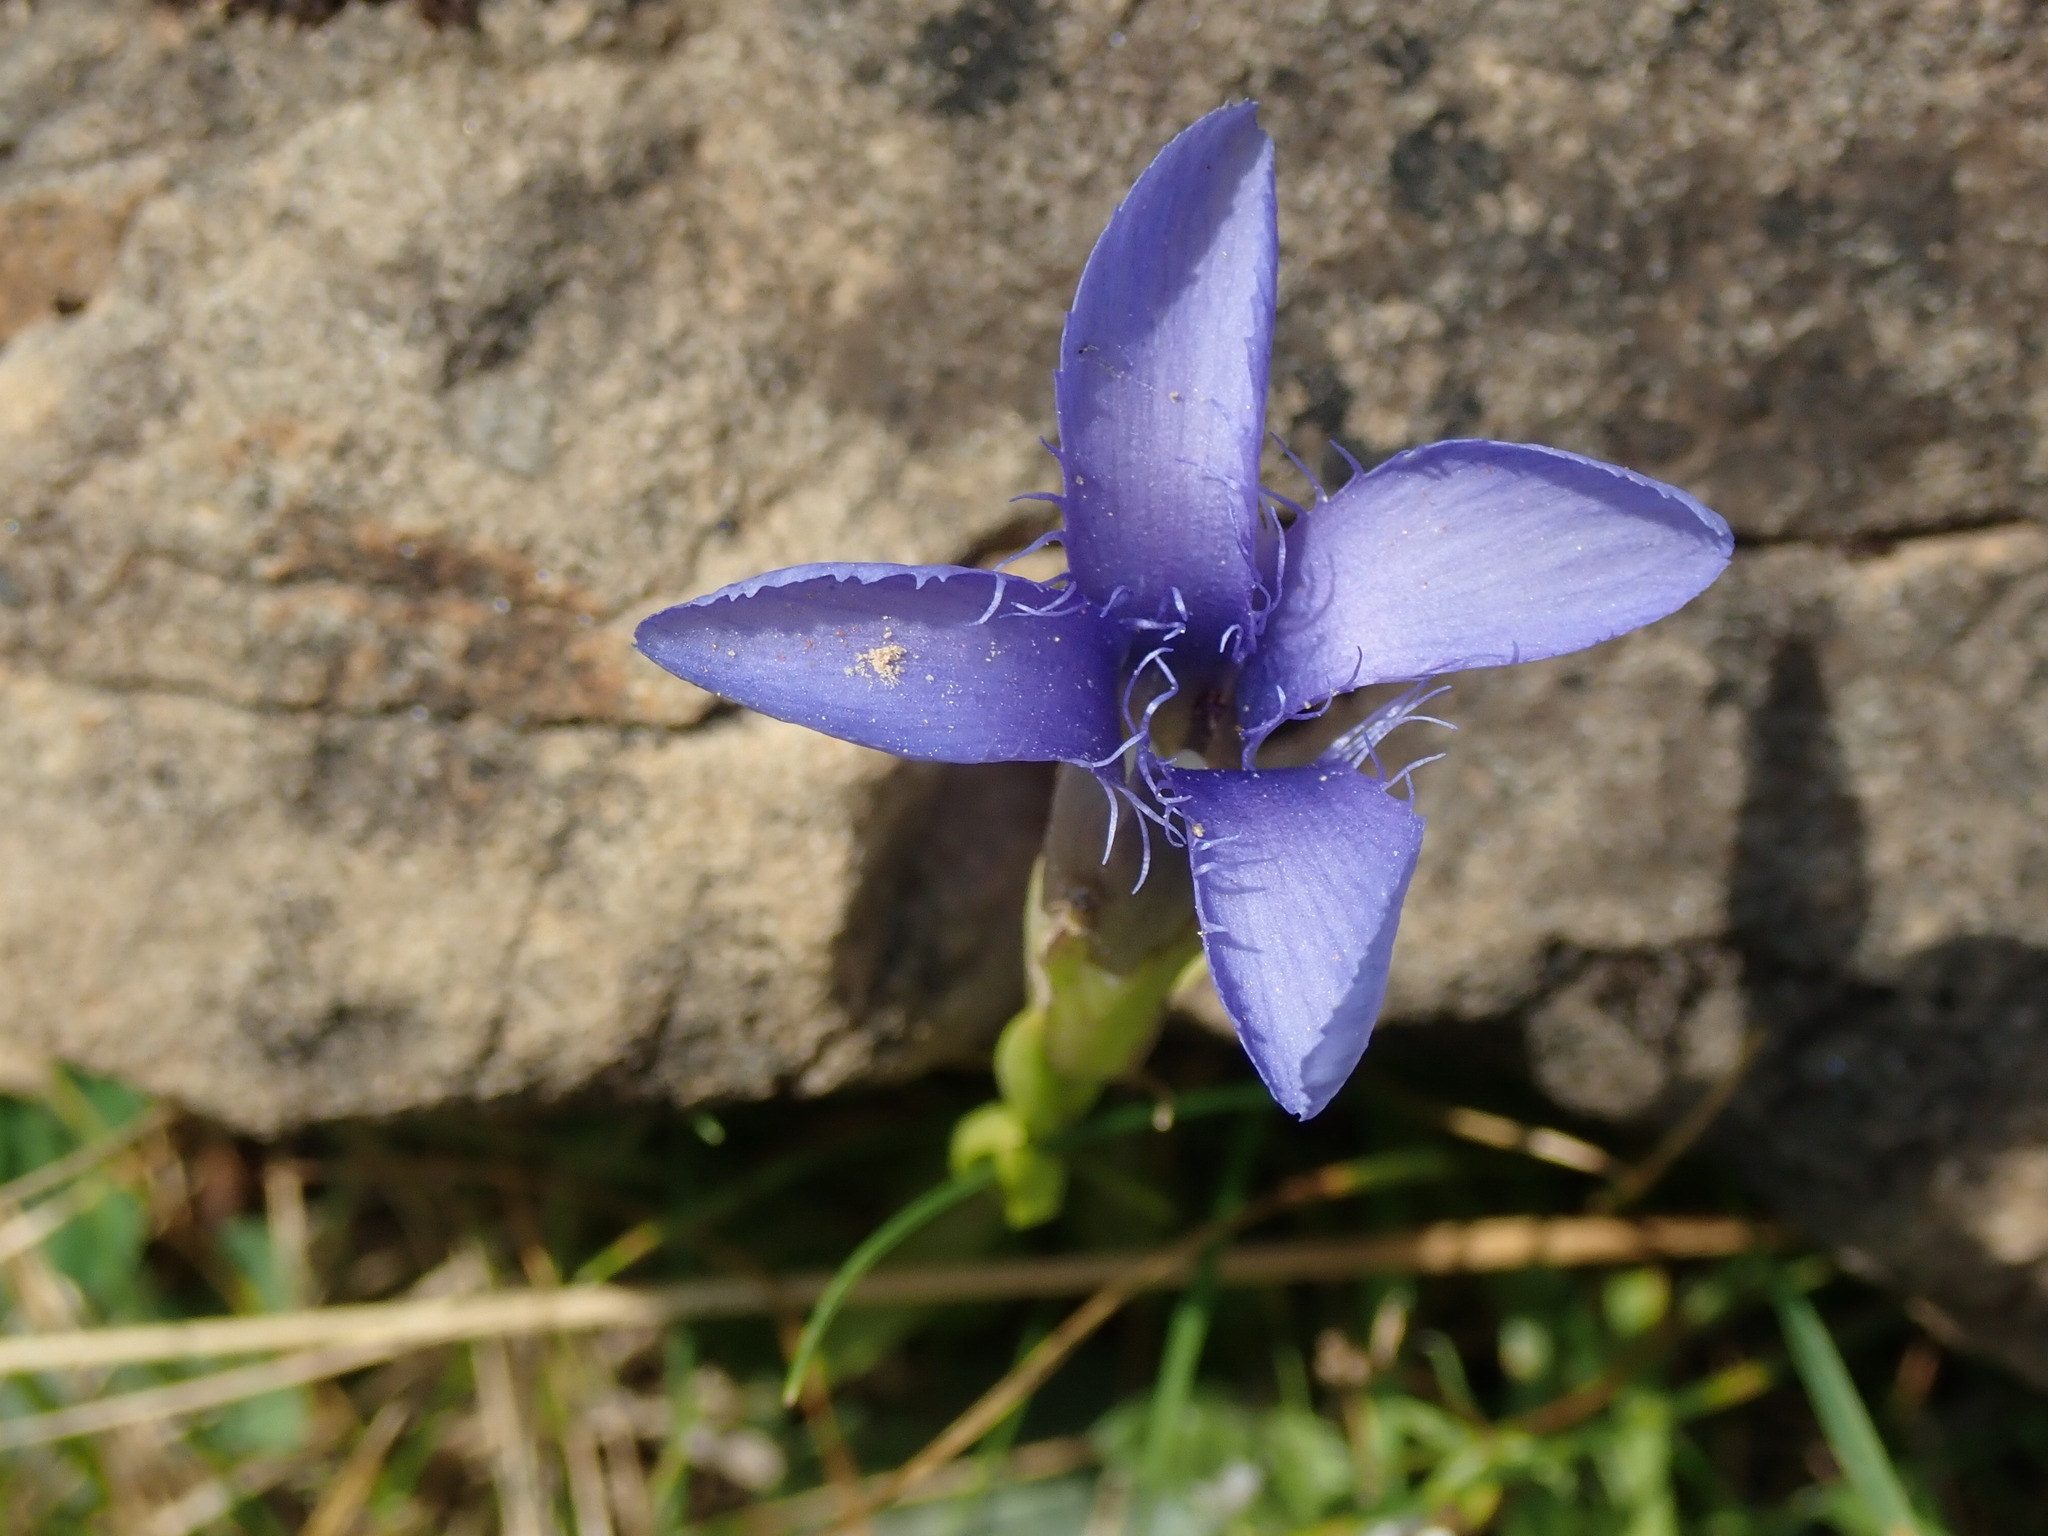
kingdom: Plantae
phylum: Tracheophyta
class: Magnoliopsida
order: Gentianales
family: Gentianaceae
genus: Gentianopsis
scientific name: Gentianopsis ciliata
